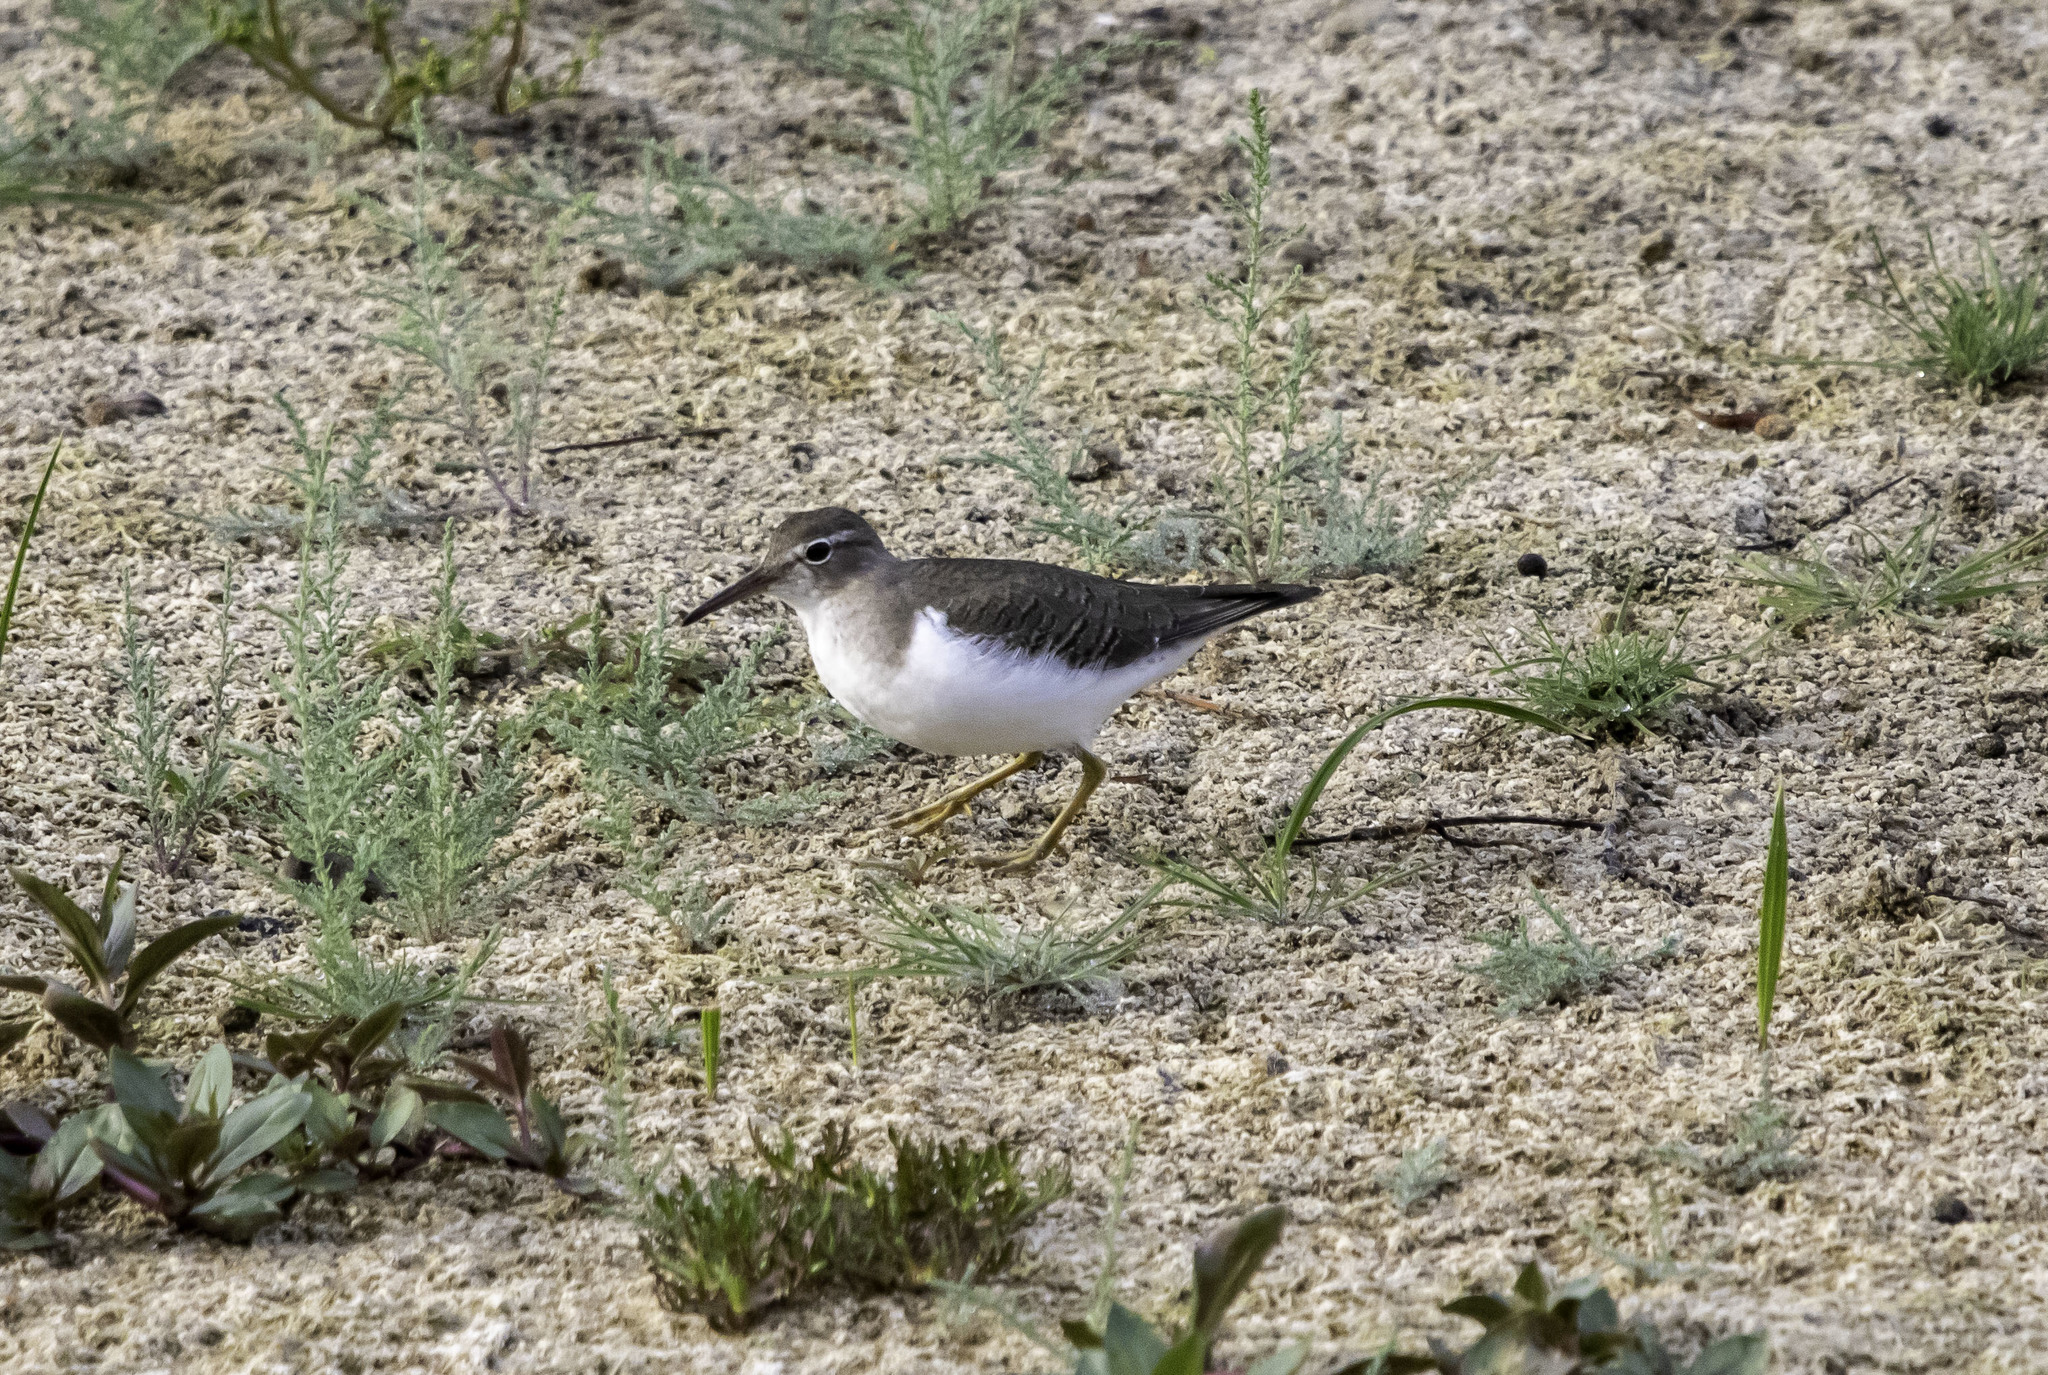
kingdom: Animalia
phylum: Chordata
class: Aves
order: Charadriiformes
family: Scolopacidae
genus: Actitis
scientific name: Actitis macularius
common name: Spotted sandpiper
